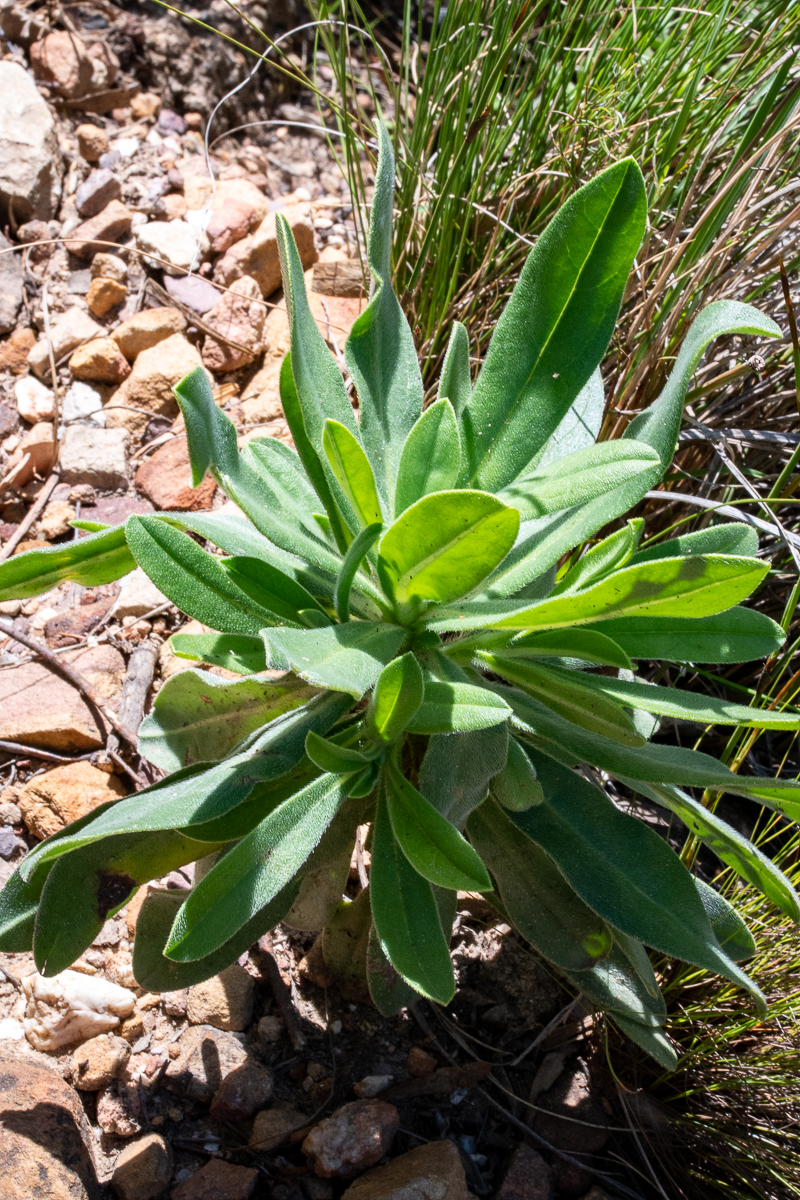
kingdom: Plantae
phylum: Tracheophyta
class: Magnoliopsida
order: Boraginales
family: Boraginaceae
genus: Lobostemon
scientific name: Lobostemon montanus
